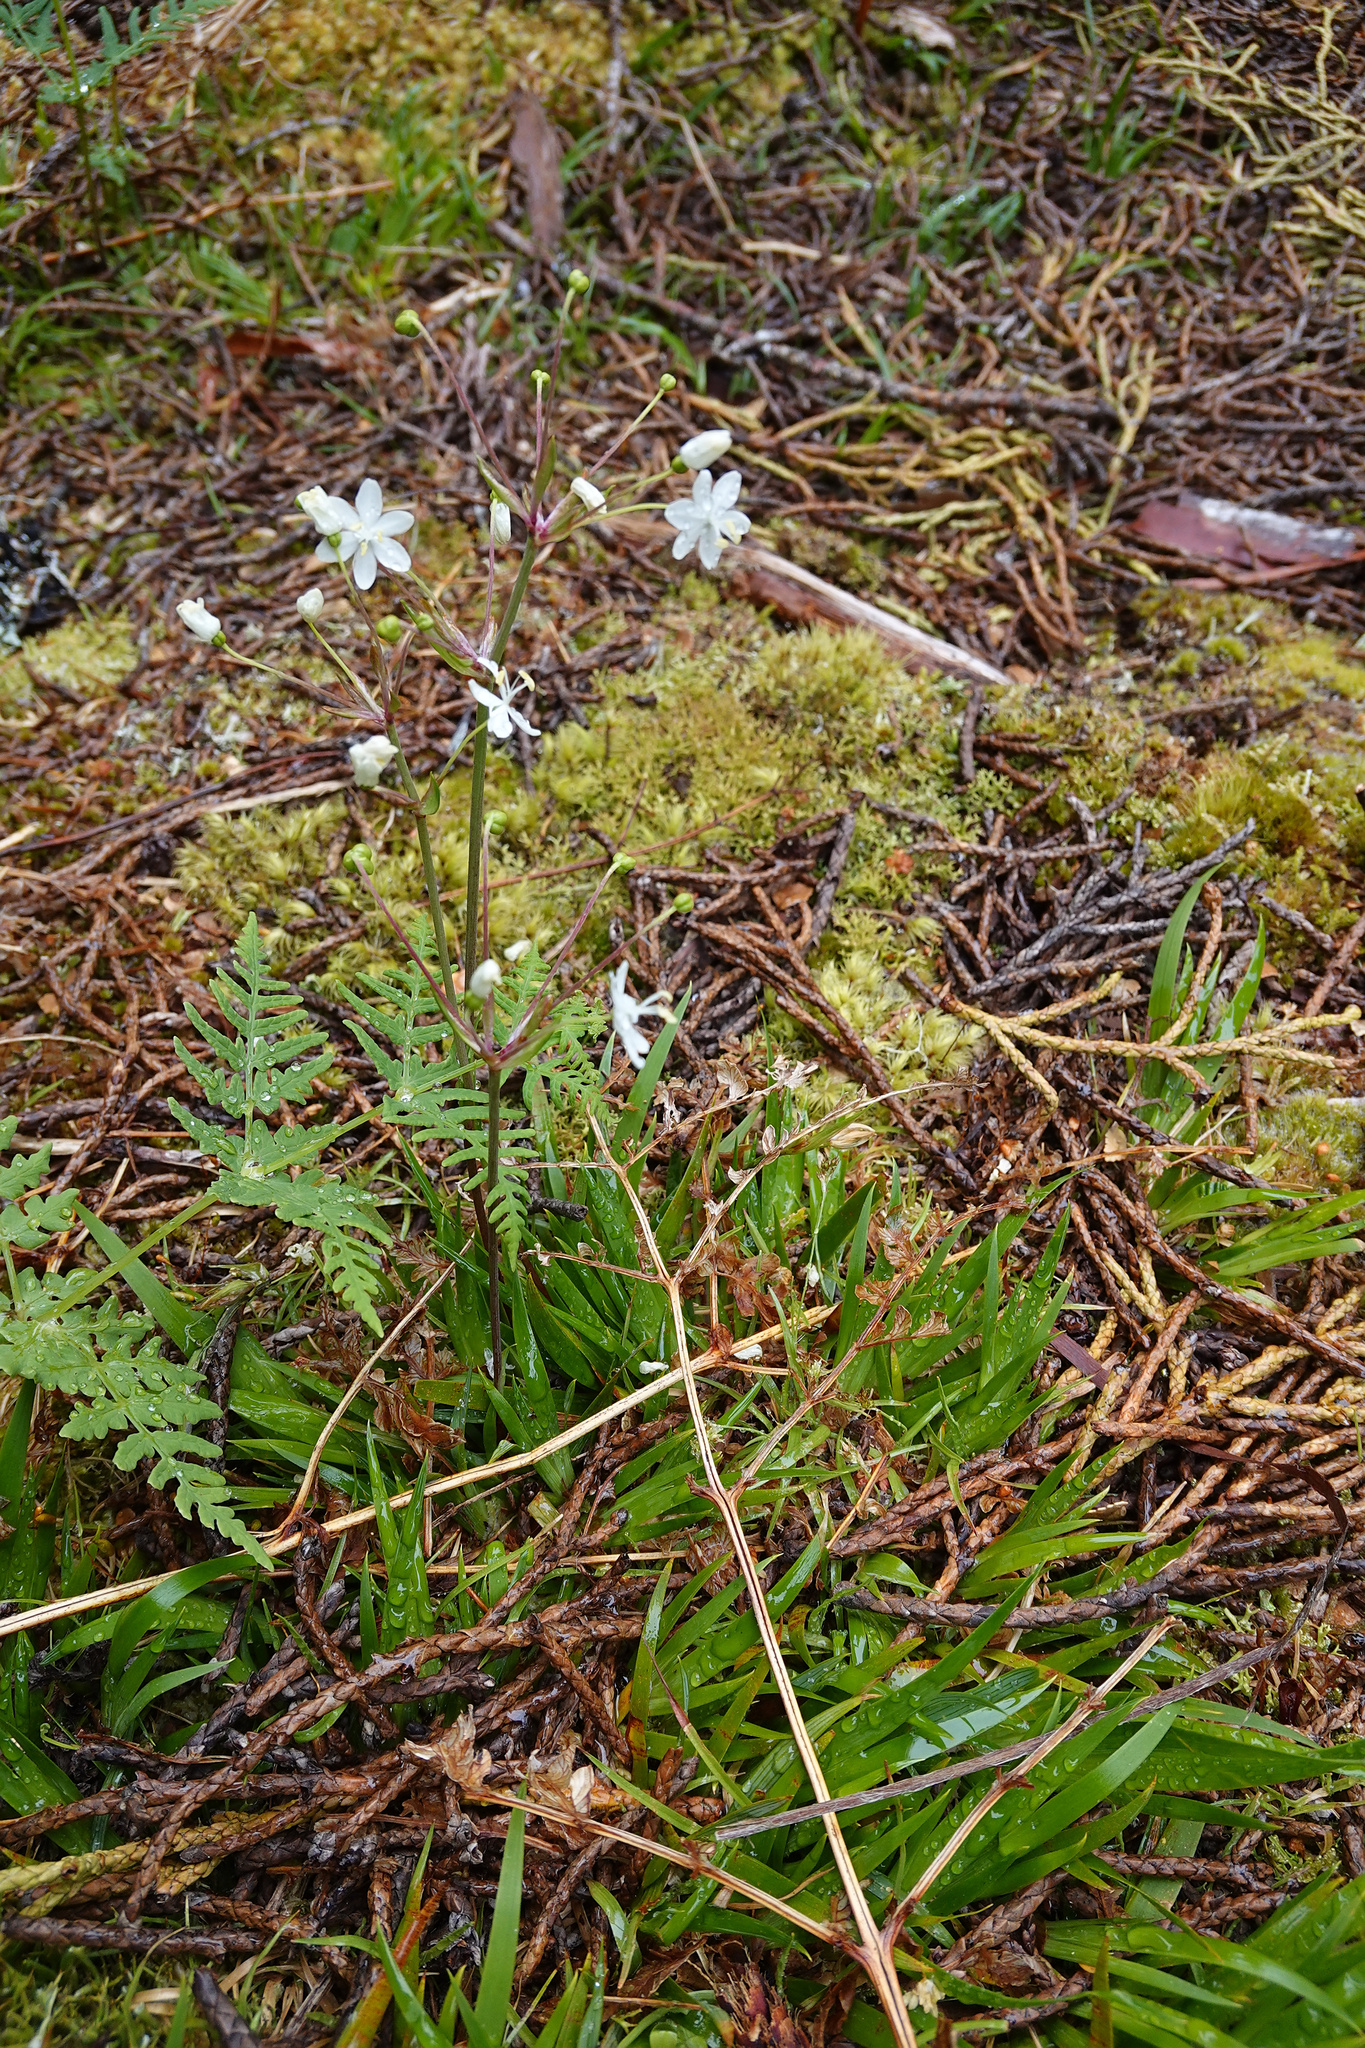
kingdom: Plantae
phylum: Tracheophyta
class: Liliopsida
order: Asparagales
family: Iridaceae
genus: Libertia
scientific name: Libertia pulchella
